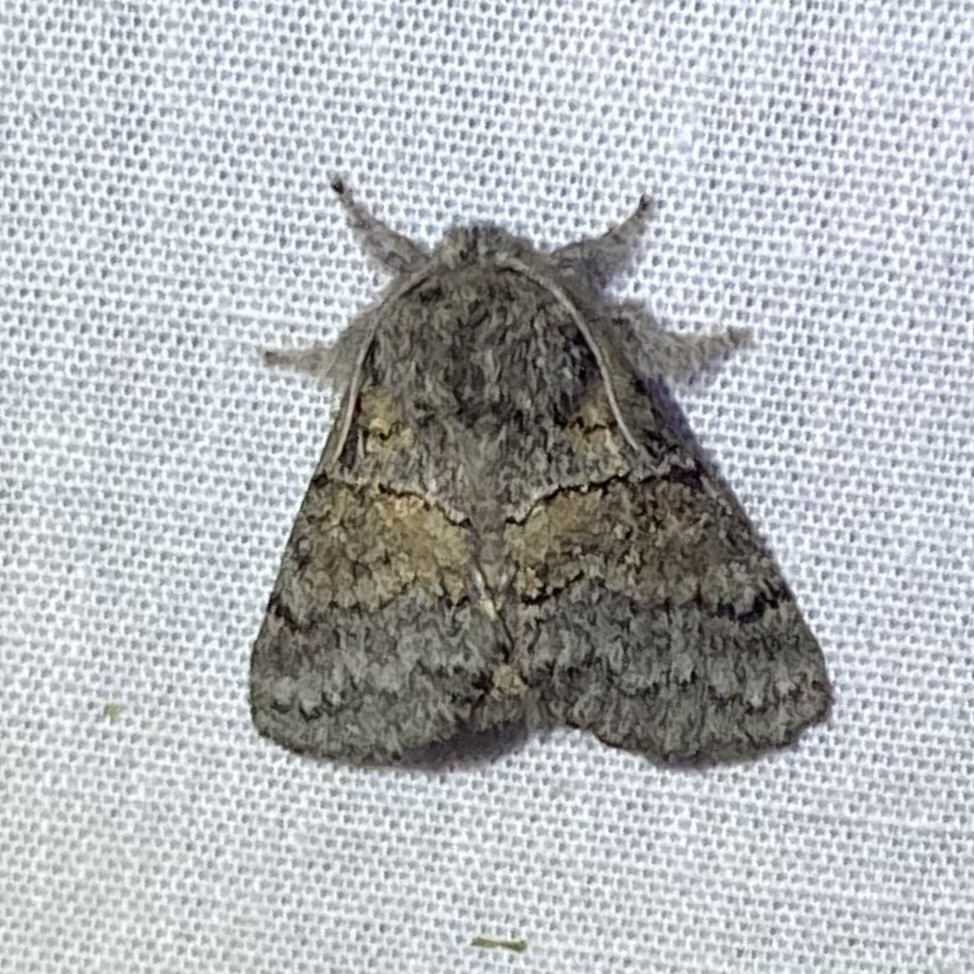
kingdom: Animalia
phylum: Arthropoda
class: Insecta
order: Lepidoptera
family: Notodontidae
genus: Gluphisia
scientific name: Gluphisia septentrionis
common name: Common gluphisia
